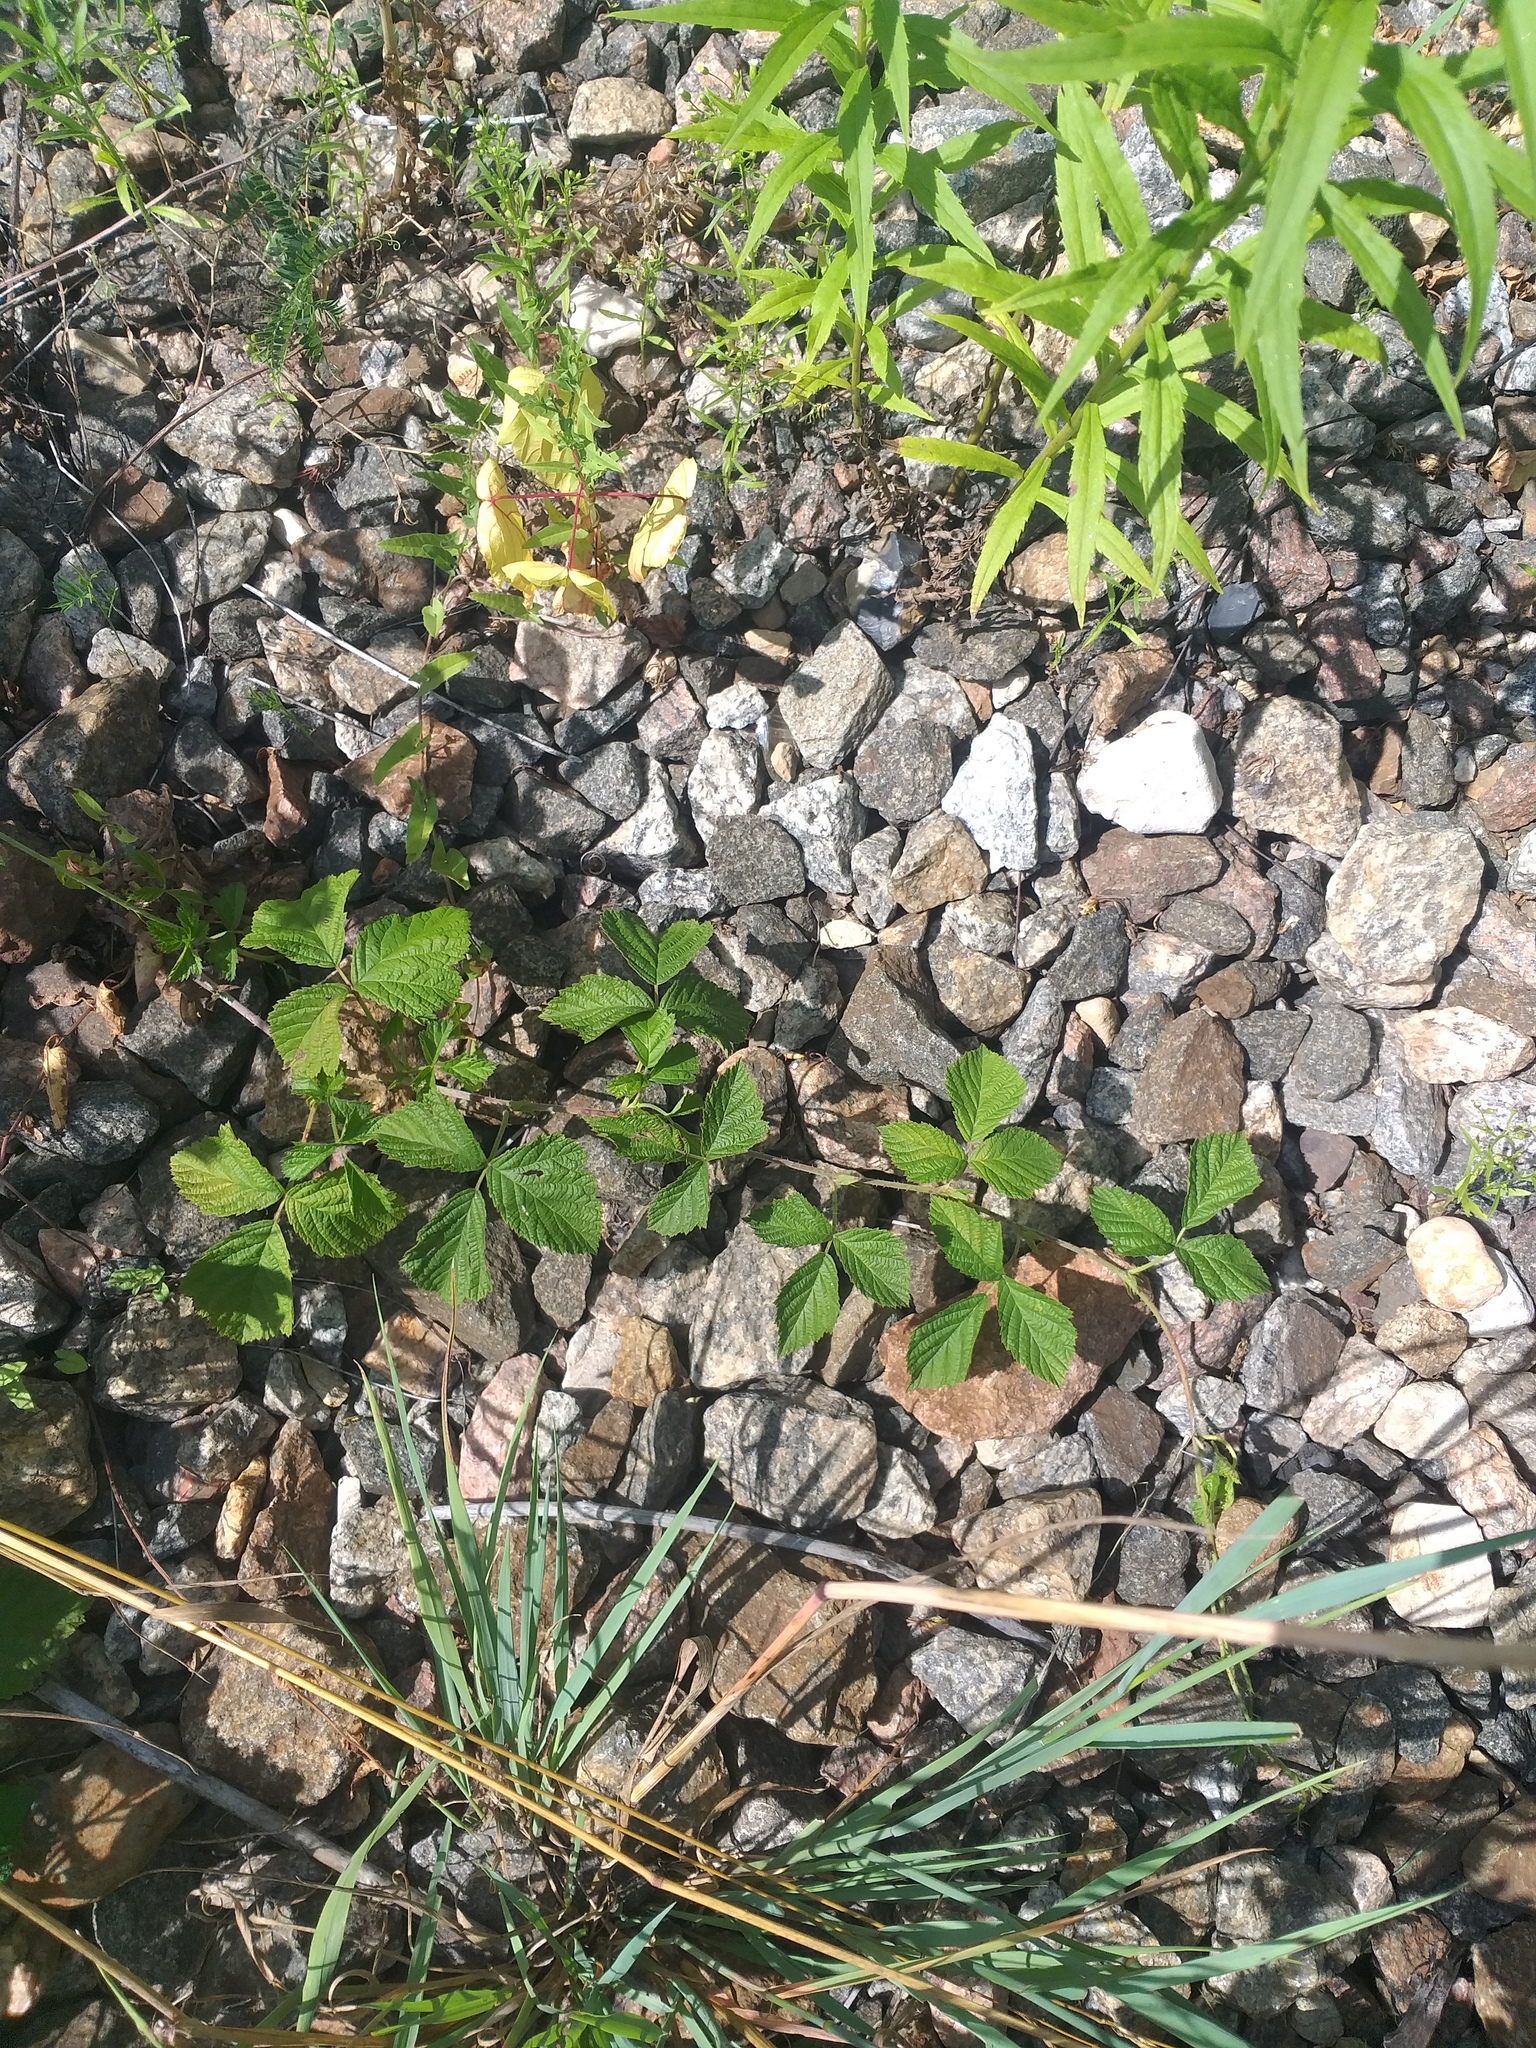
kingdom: Plantae
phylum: Tracheophyta
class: Magnoliopsida
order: Rosales
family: Rosaceae
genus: Rubus
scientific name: Rubus caesius
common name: Dewberry
